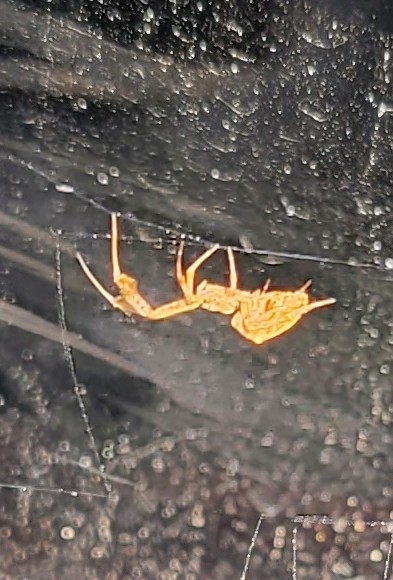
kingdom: Animalia
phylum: Arthropoda
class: Arachnida
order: Araneae
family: Uloboridae
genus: Uloborus
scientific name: Uloborus glomosus
